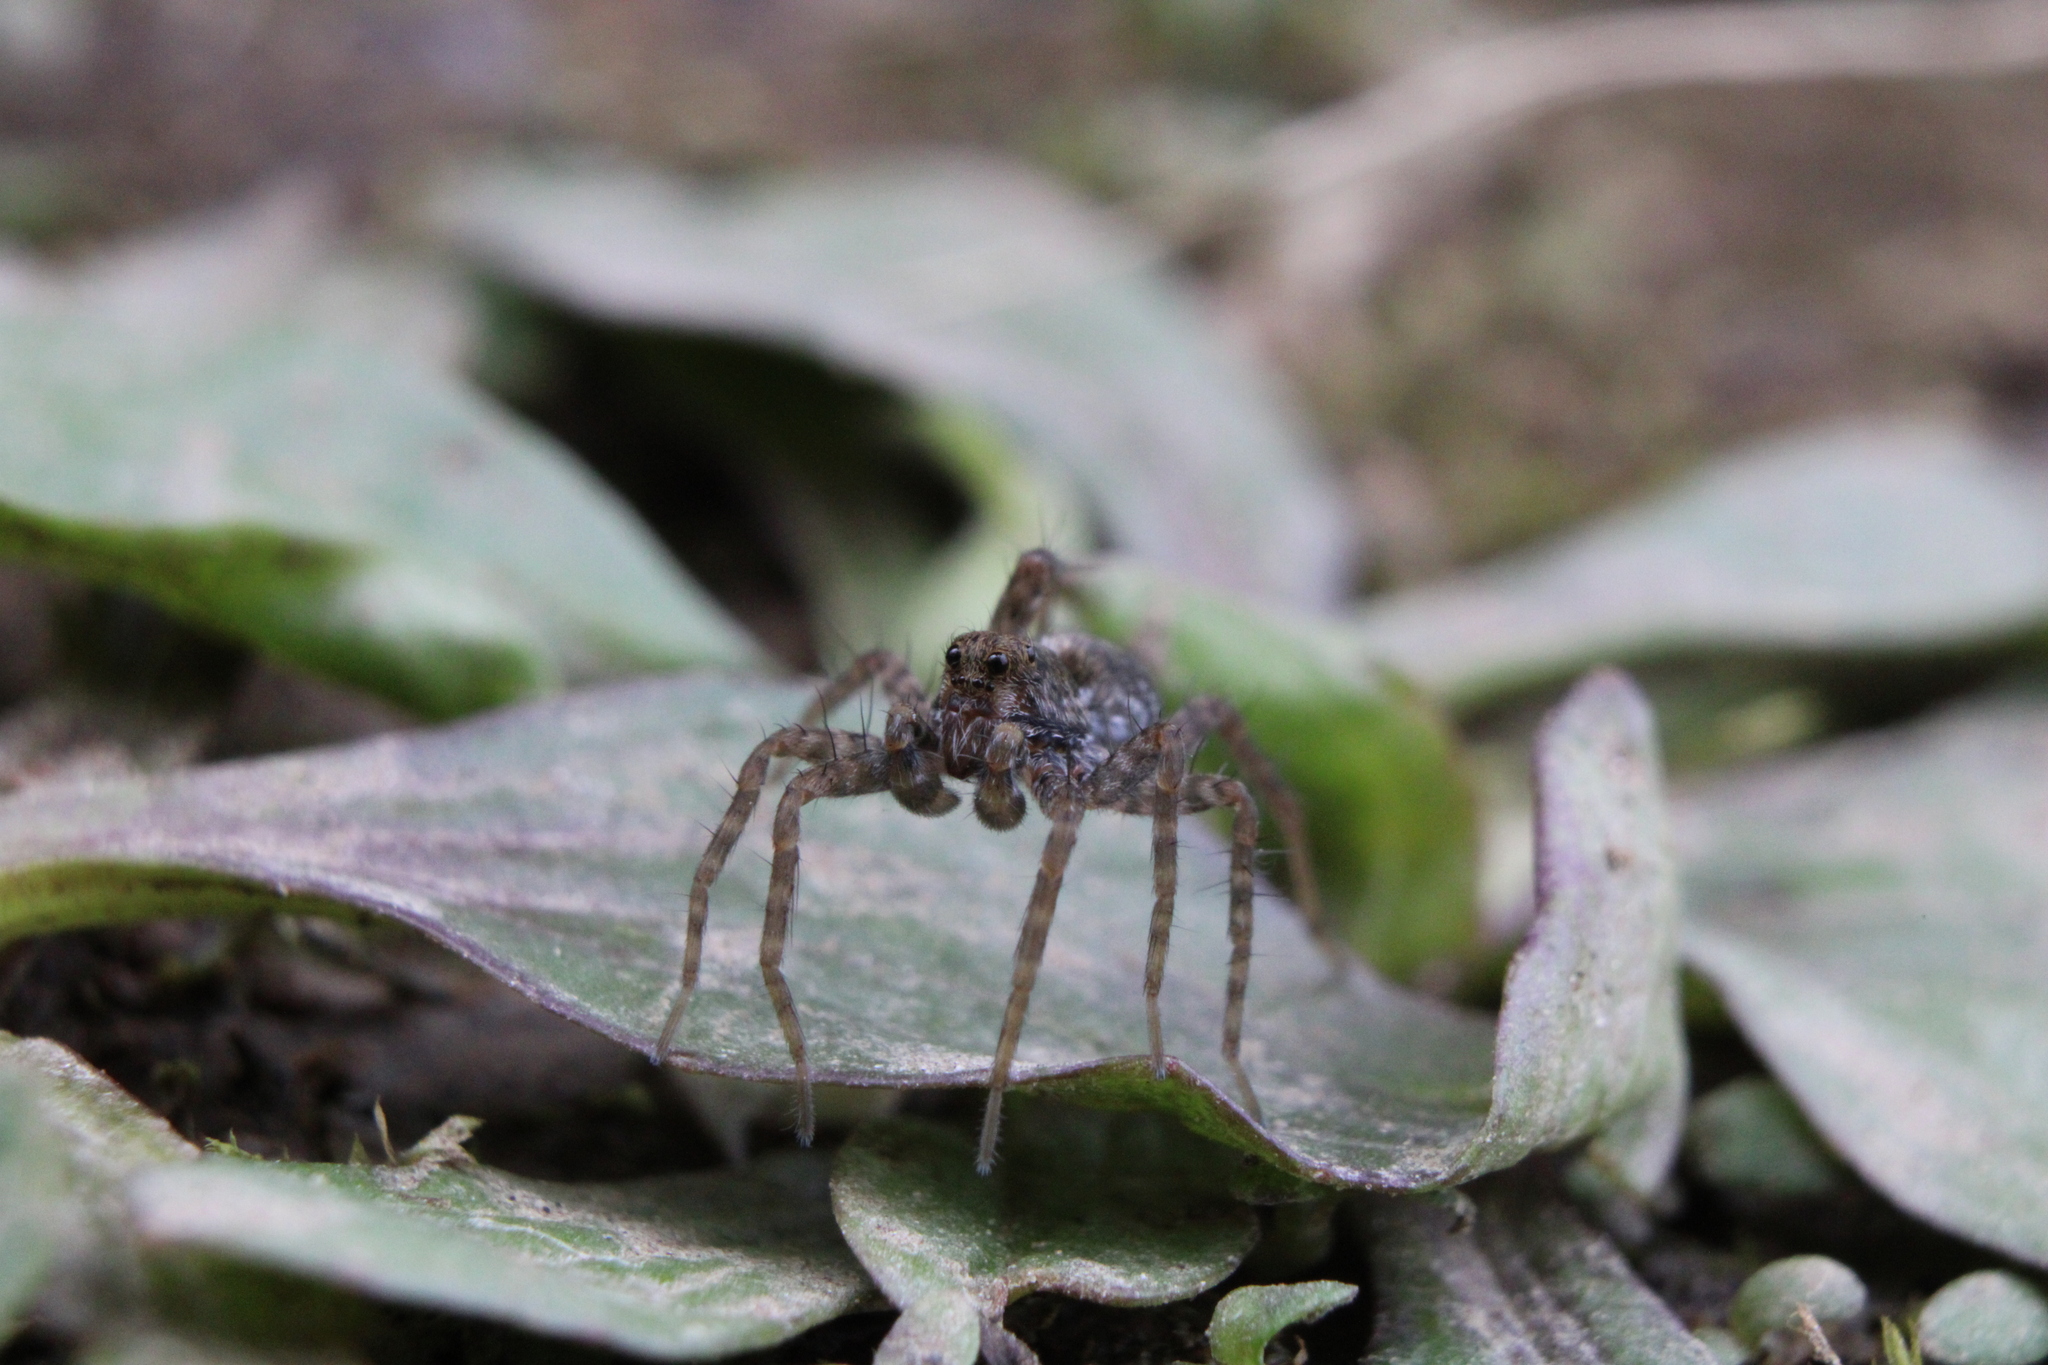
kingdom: Animalia
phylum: Arthropoda
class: Arachnida
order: Araneae
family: Lycosidae
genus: Pardosa
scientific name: Pardosa milvina
